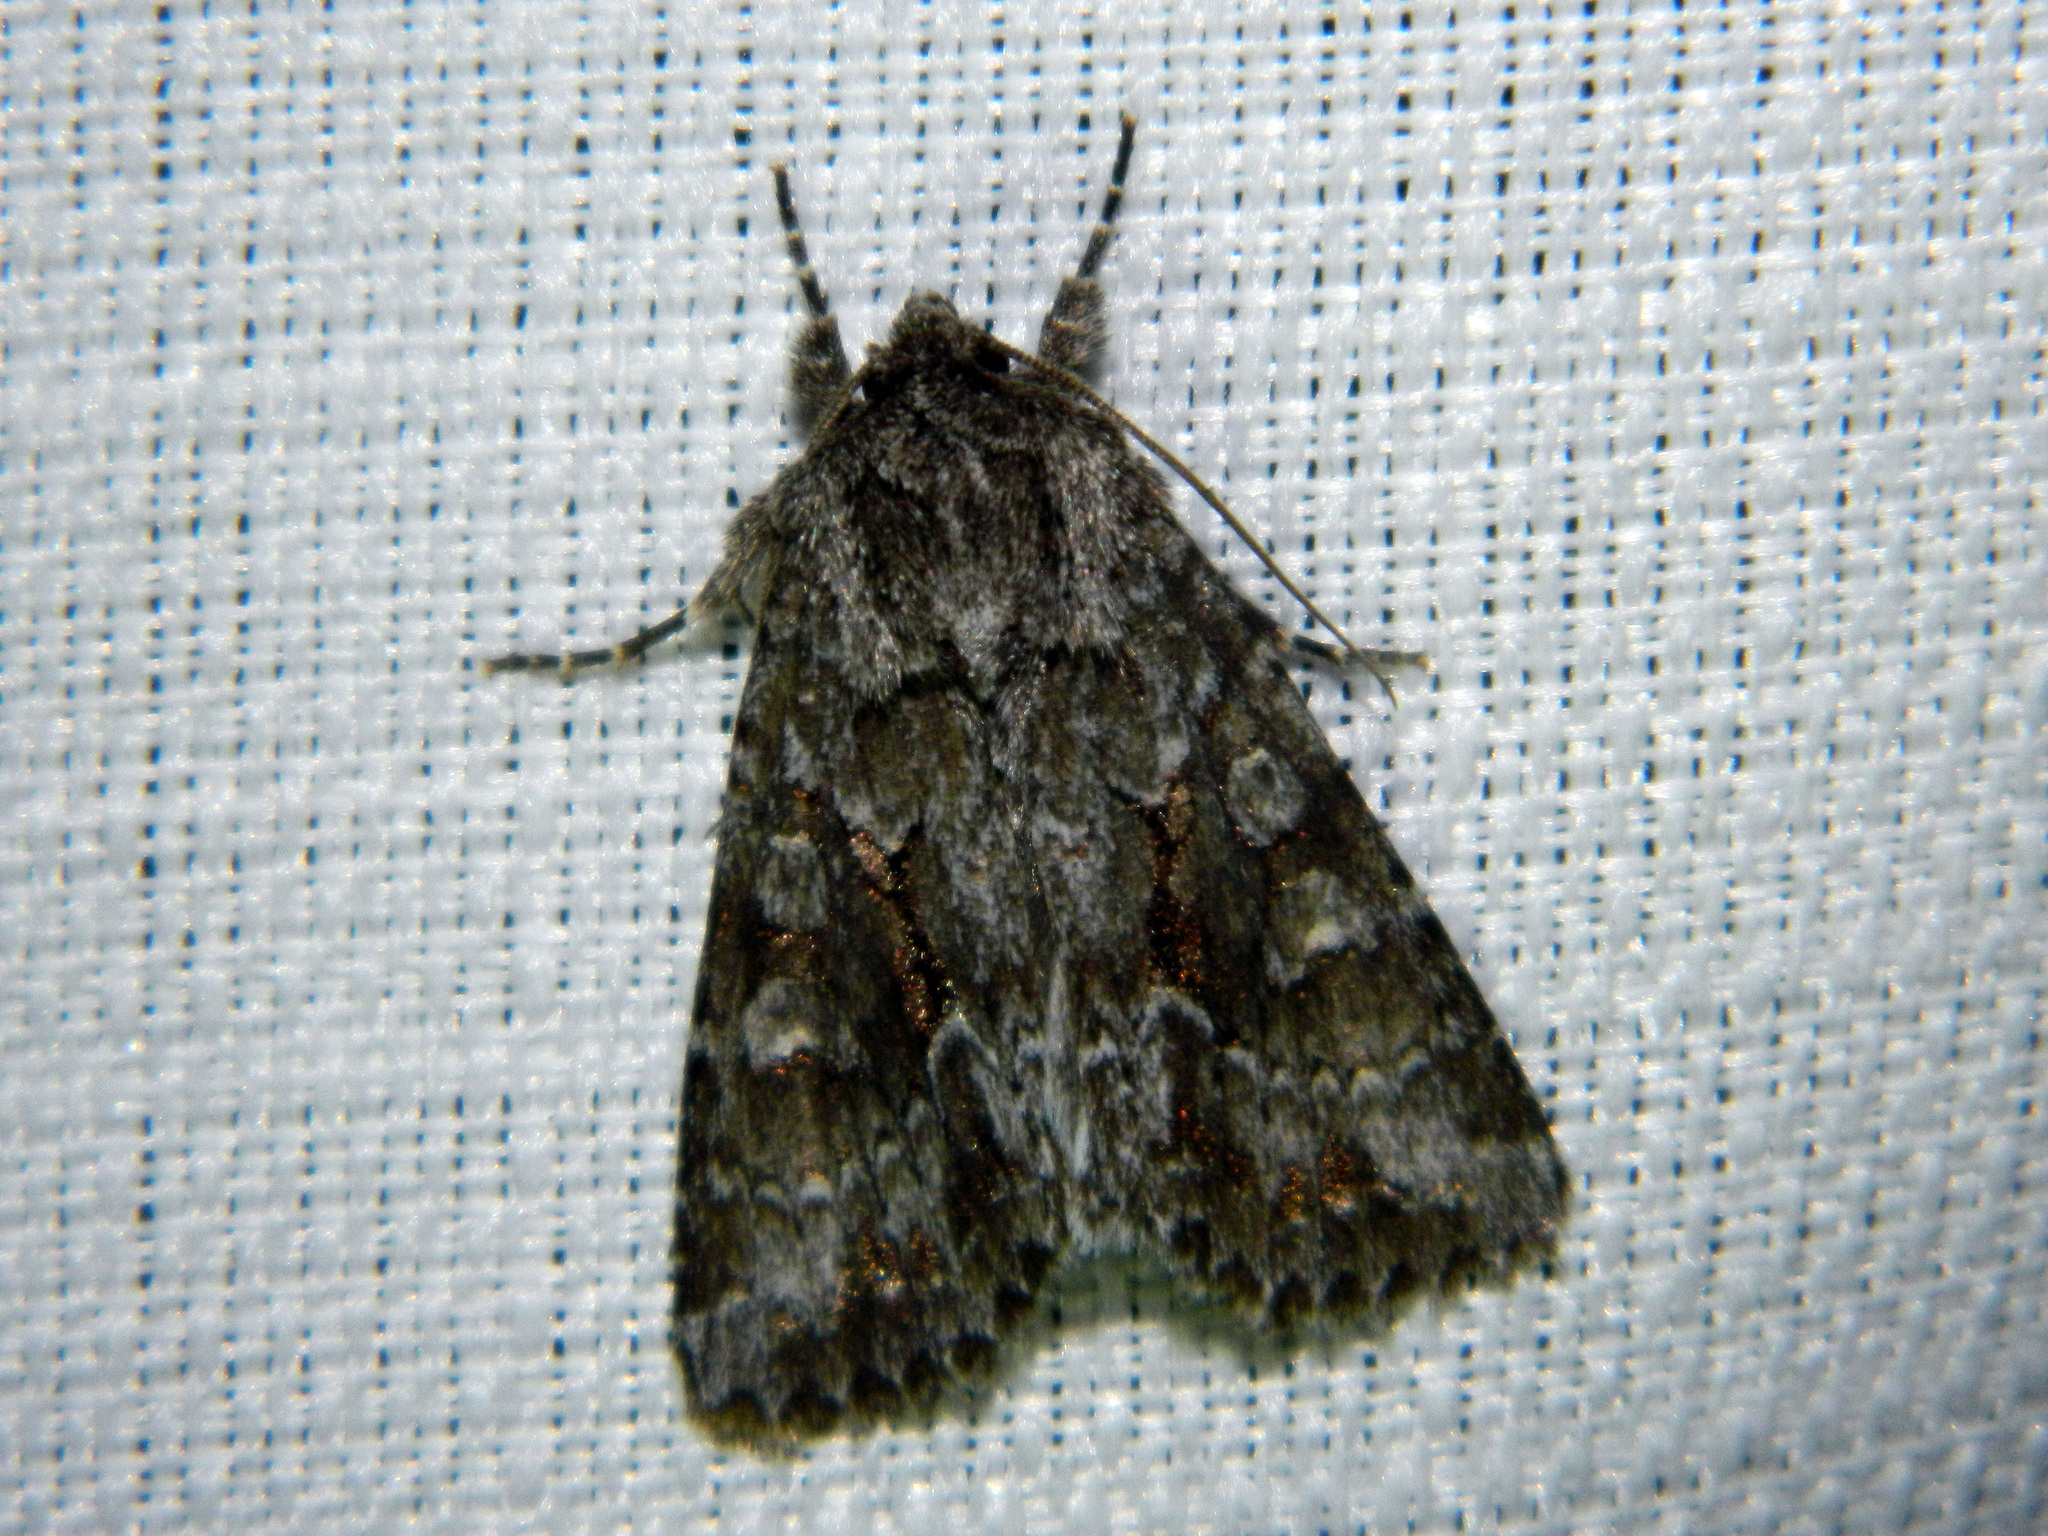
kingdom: Animalia
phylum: Arthropoda
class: Insecta
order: Lepidoptera
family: Noctuidae
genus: Sutyna
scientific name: Sutyna privata
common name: Private sallow
